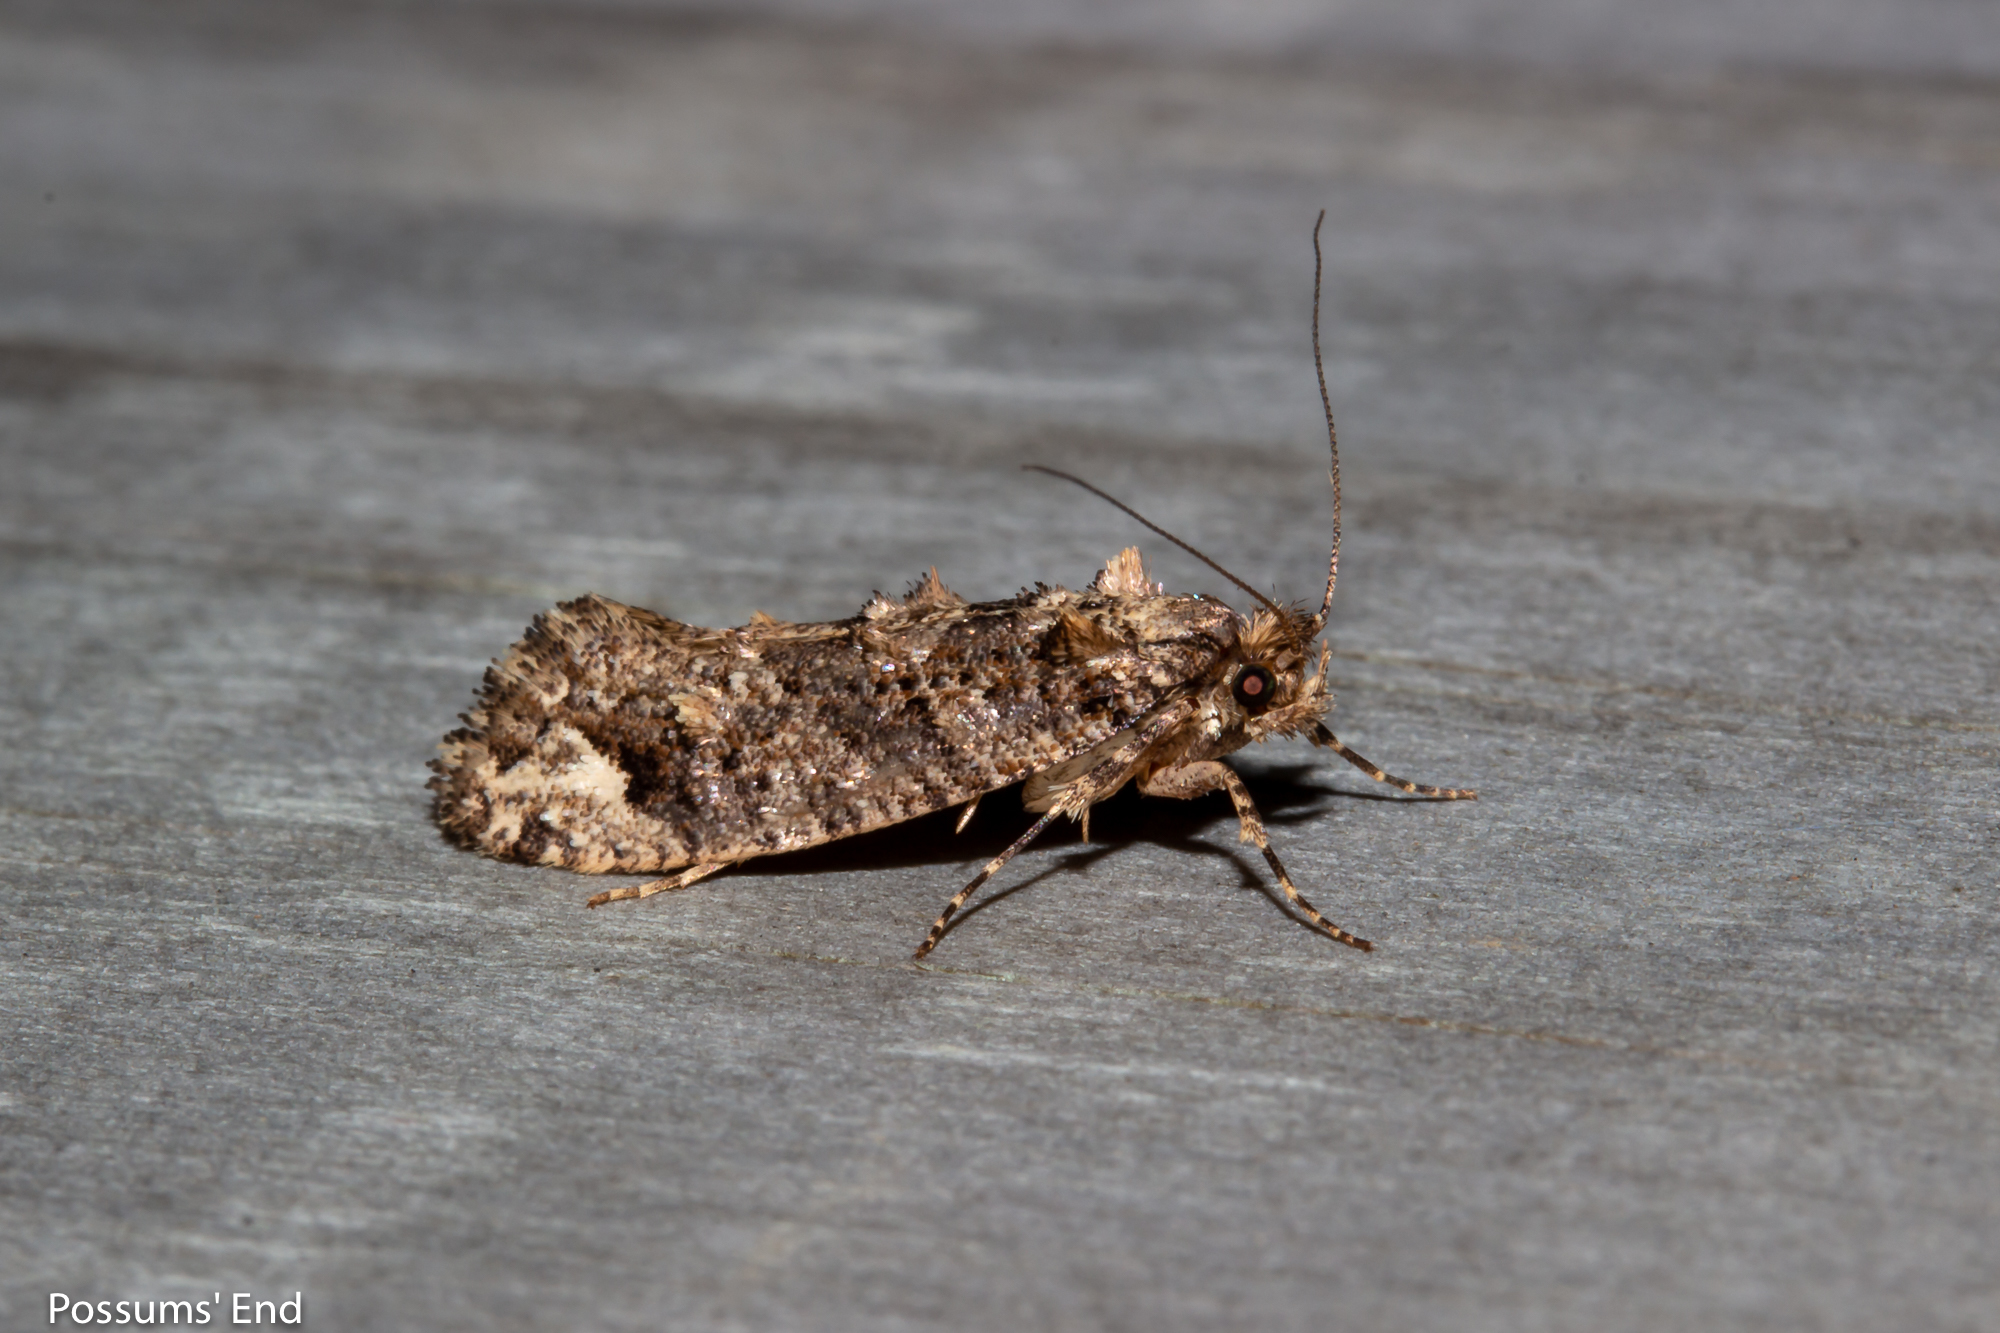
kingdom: Animalia
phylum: Arthropoda
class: Insecta
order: Lepidoptera
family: Tineidae
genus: Lysiphragma
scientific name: Lysiphragma epixyla
